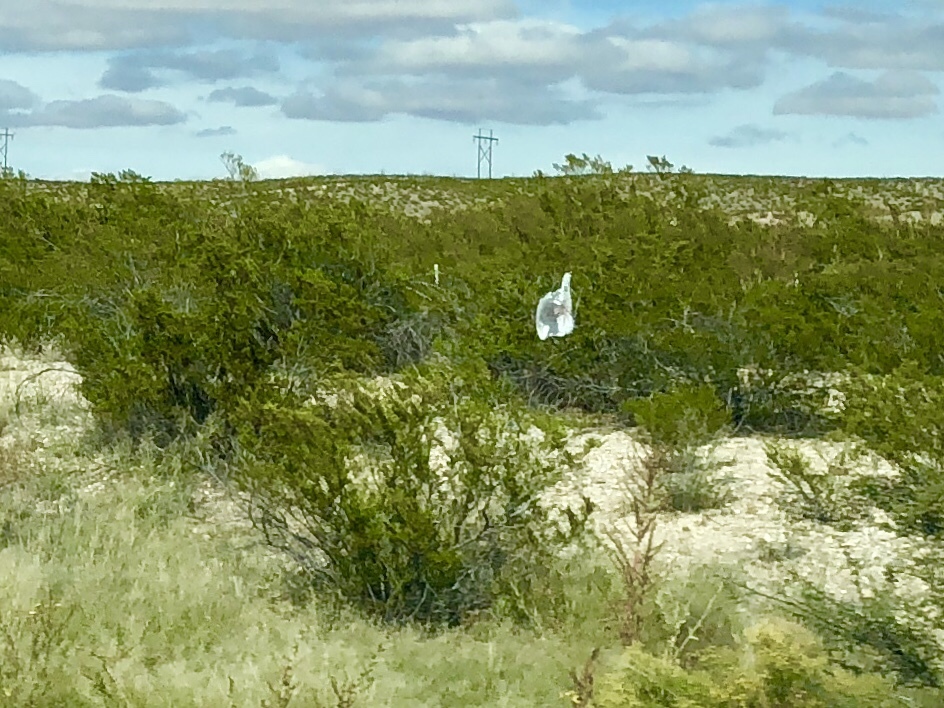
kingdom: Plantae
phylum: Tracheophyta
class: Magnoliopsida
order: Zygophyllales
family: Zygophyllaceae
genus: Larrea
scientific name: Larrea tridentata
